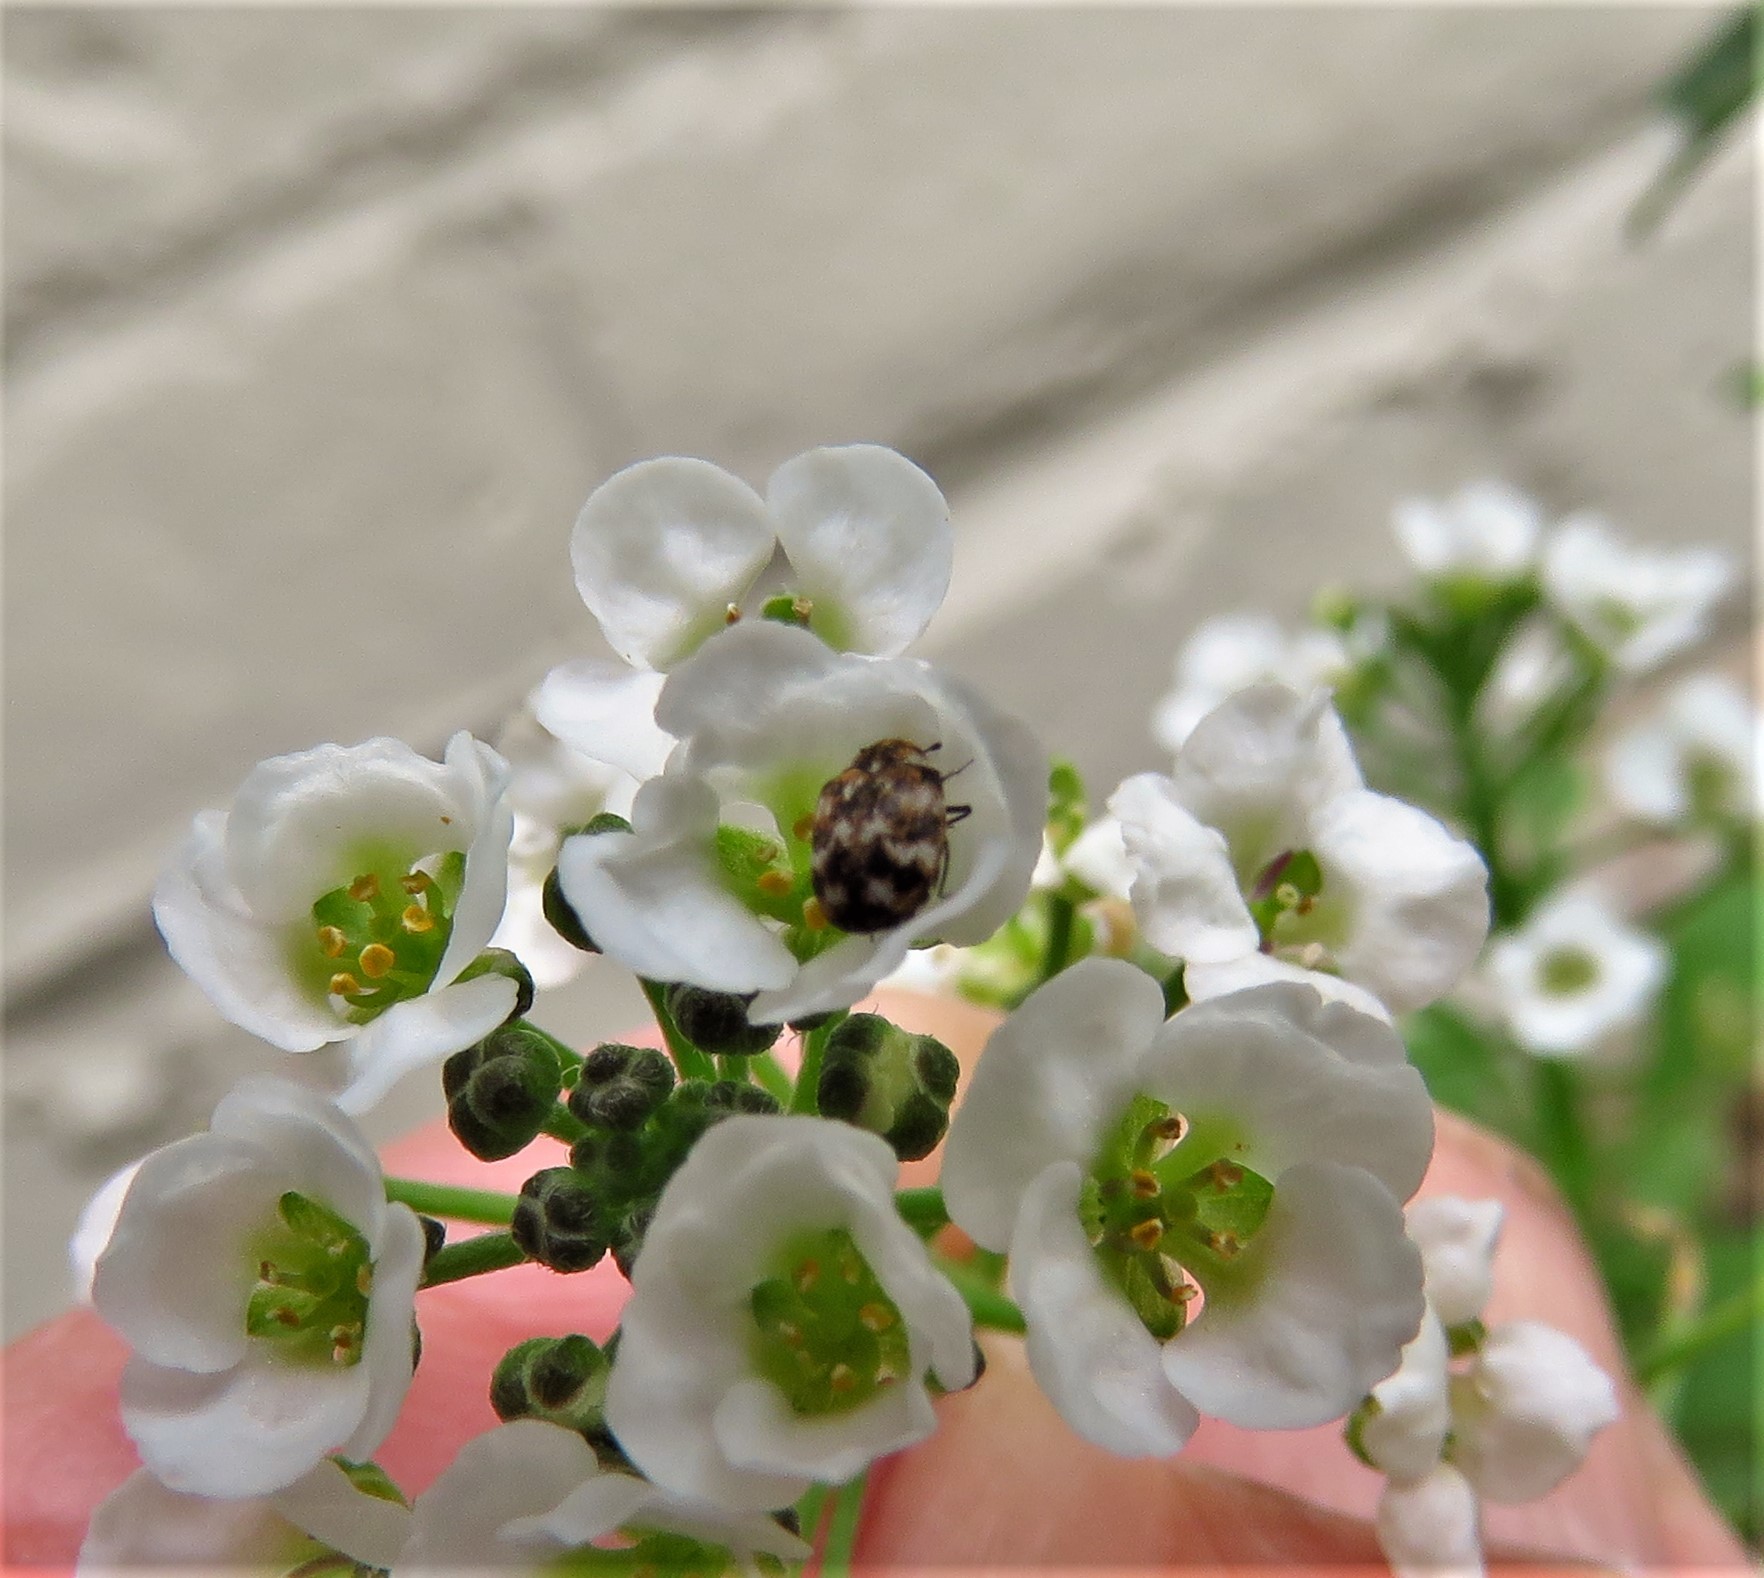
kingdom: Animalia
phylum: Arthropoda
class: Insecta
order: Coleoptera
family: Dermestidae
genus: Anthrenus
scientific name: Anthrenus verbasci
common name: Varied carpet beetle
